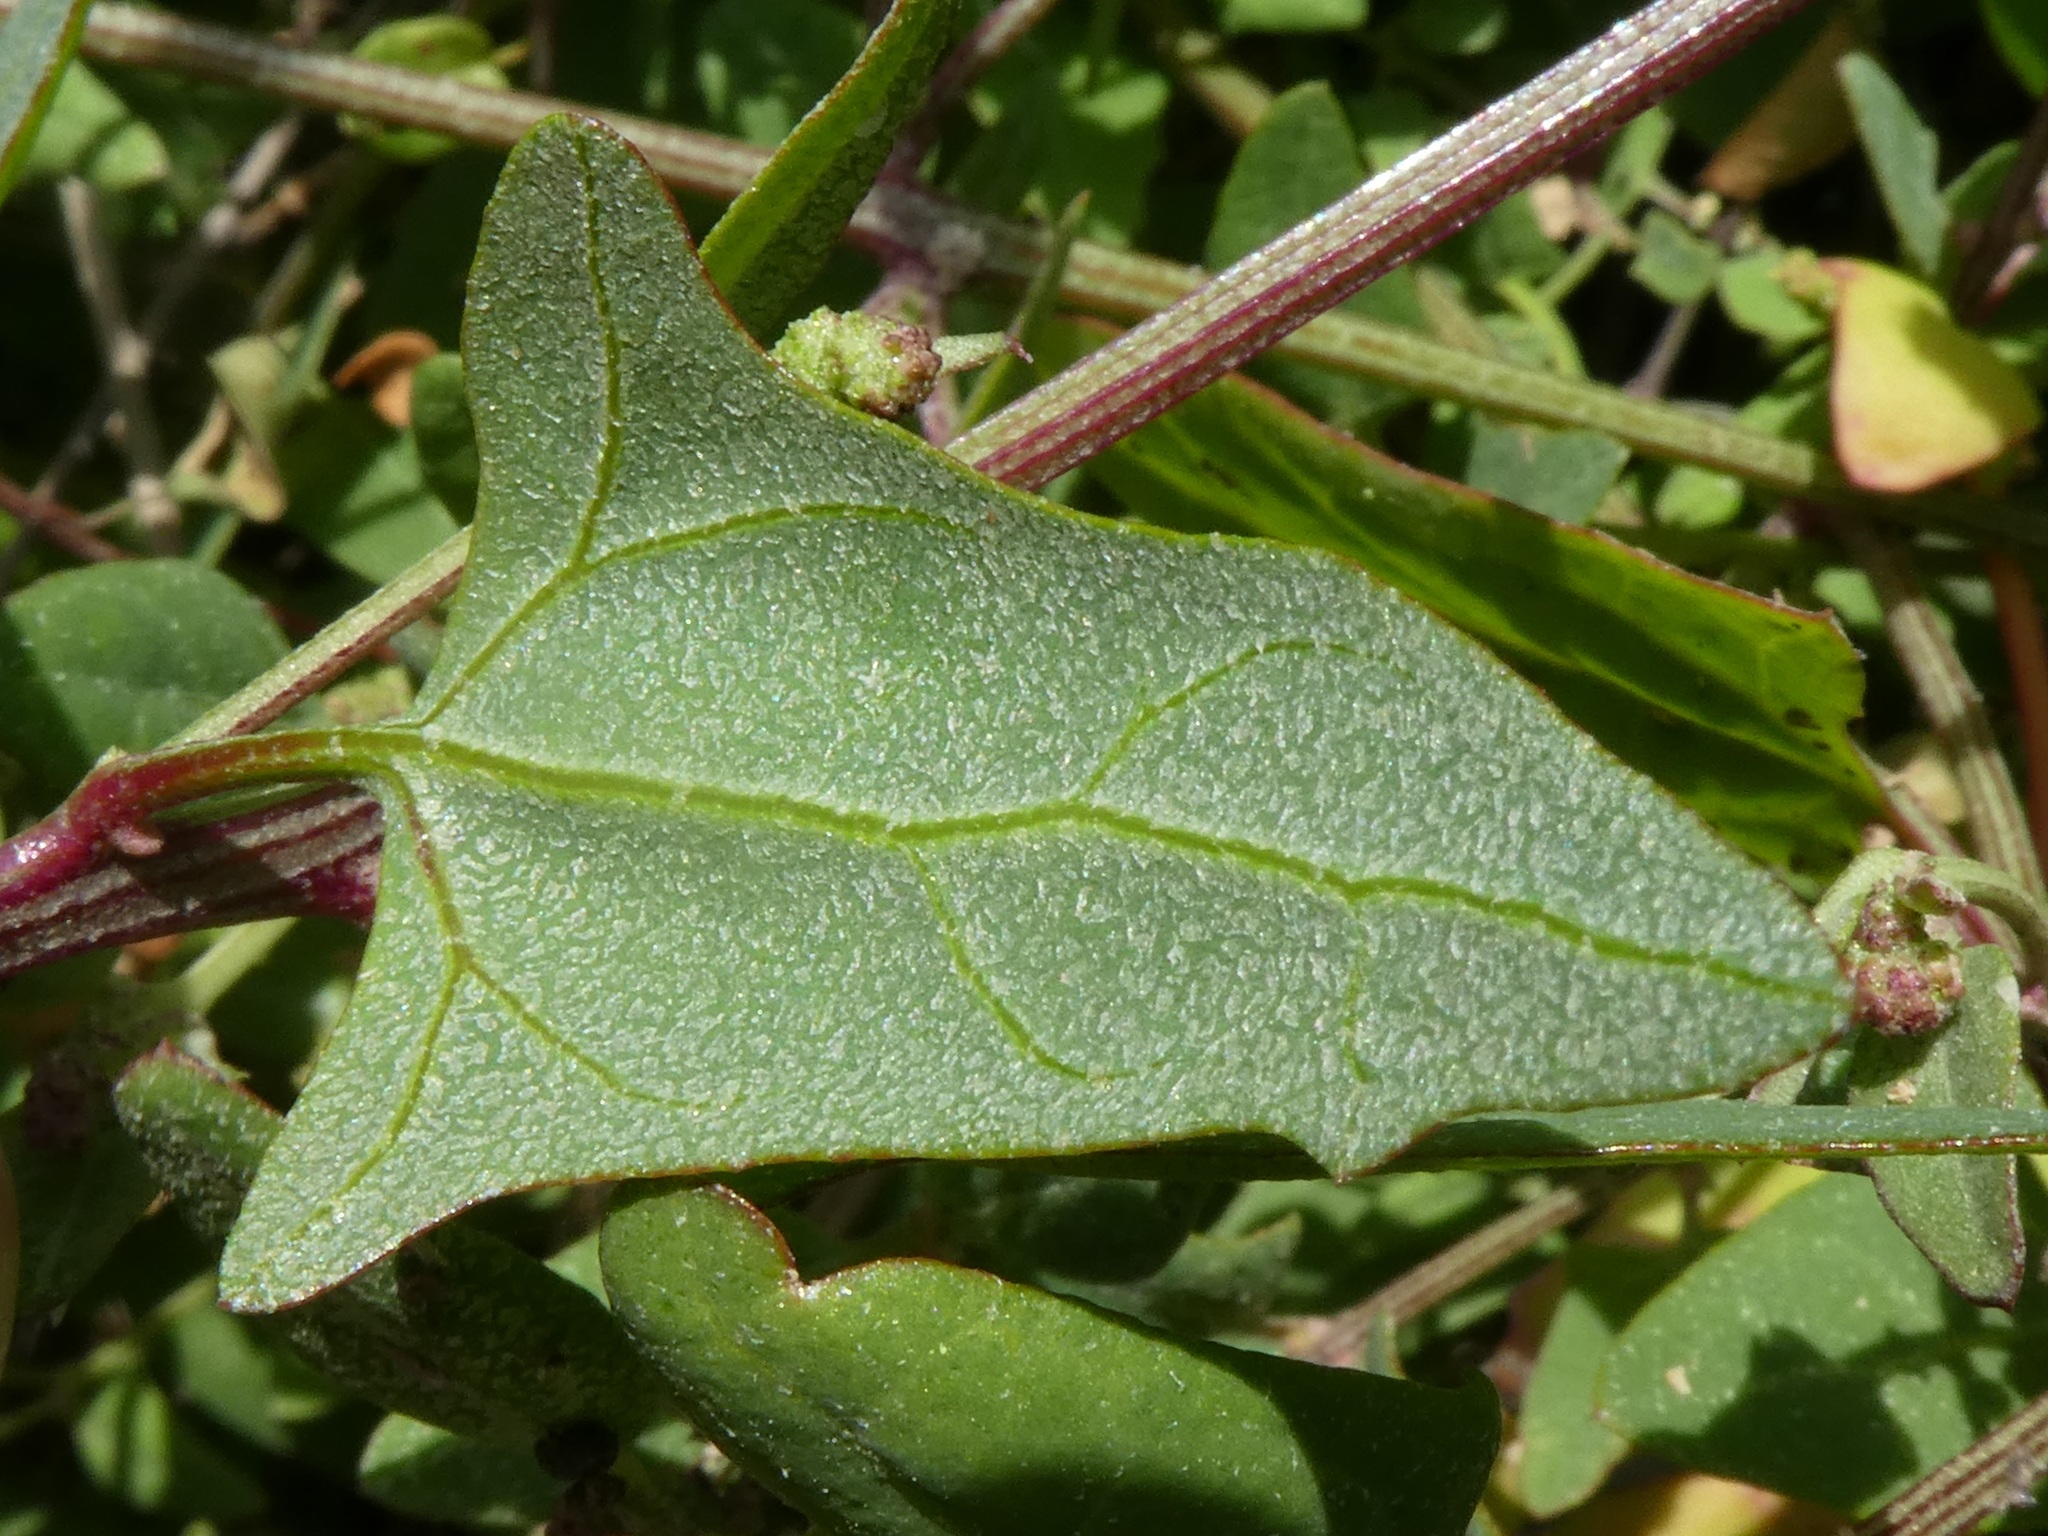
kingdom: Plantae
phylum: Tracheophyta
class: Magnoliopsida
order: Caryophyllales
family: Amaranthaceae
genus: Atriplex
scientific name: Atriplex prostrata
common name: Spear-leaved orache
